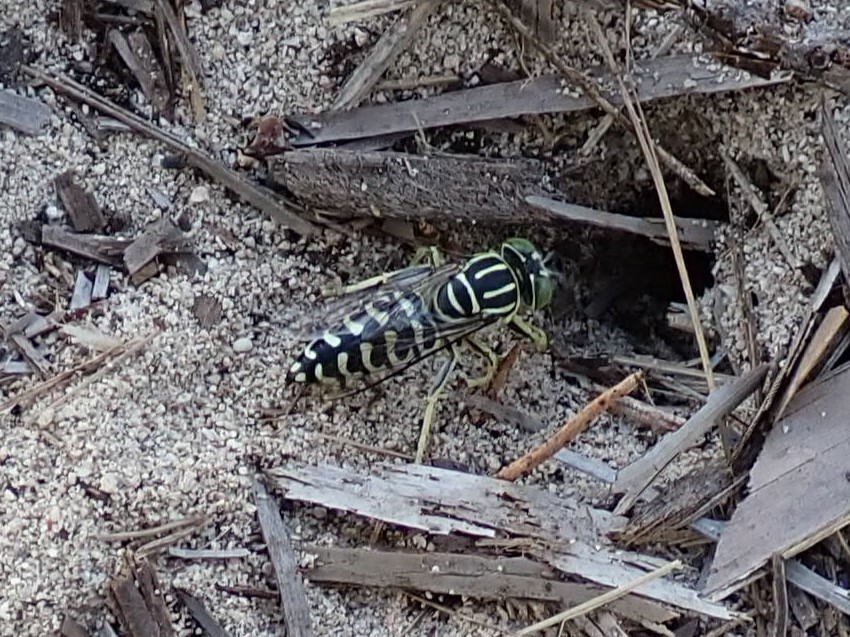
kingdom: Animalia
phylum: Arthropoda
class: Insecta
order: Hymenoptera
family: Crabronidae
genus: Stictia
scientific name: Stictia signata
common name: Sand wasp
